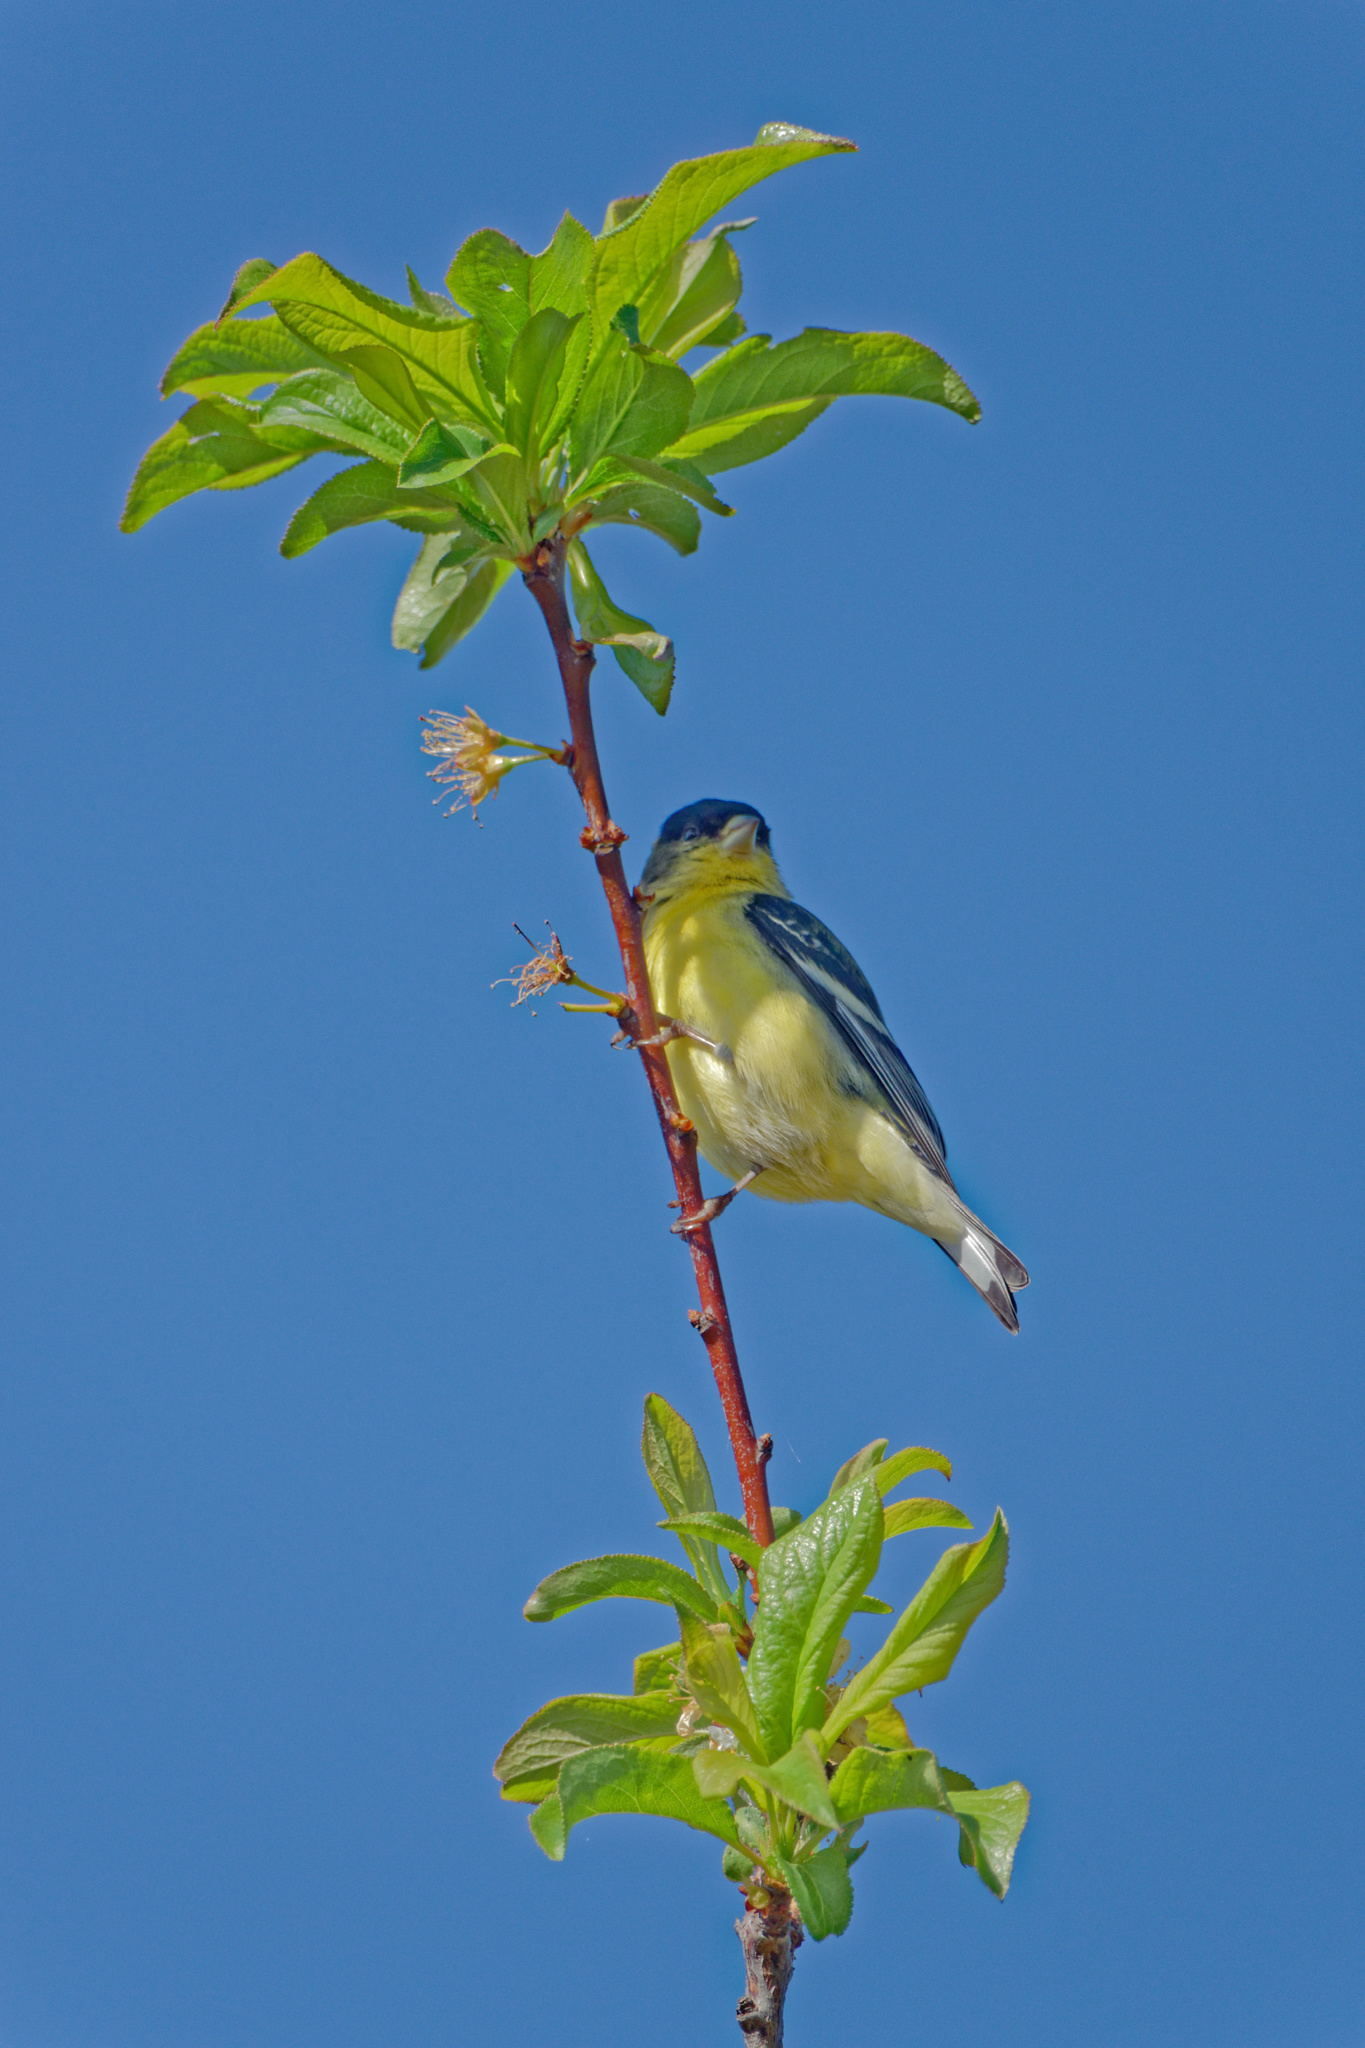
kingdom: Animalia
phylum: Chordata
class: Aves
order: Passeriformes
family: Fringillidae
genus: Spinus
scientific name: Spinus psaltria
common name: Lesser goldfinch
